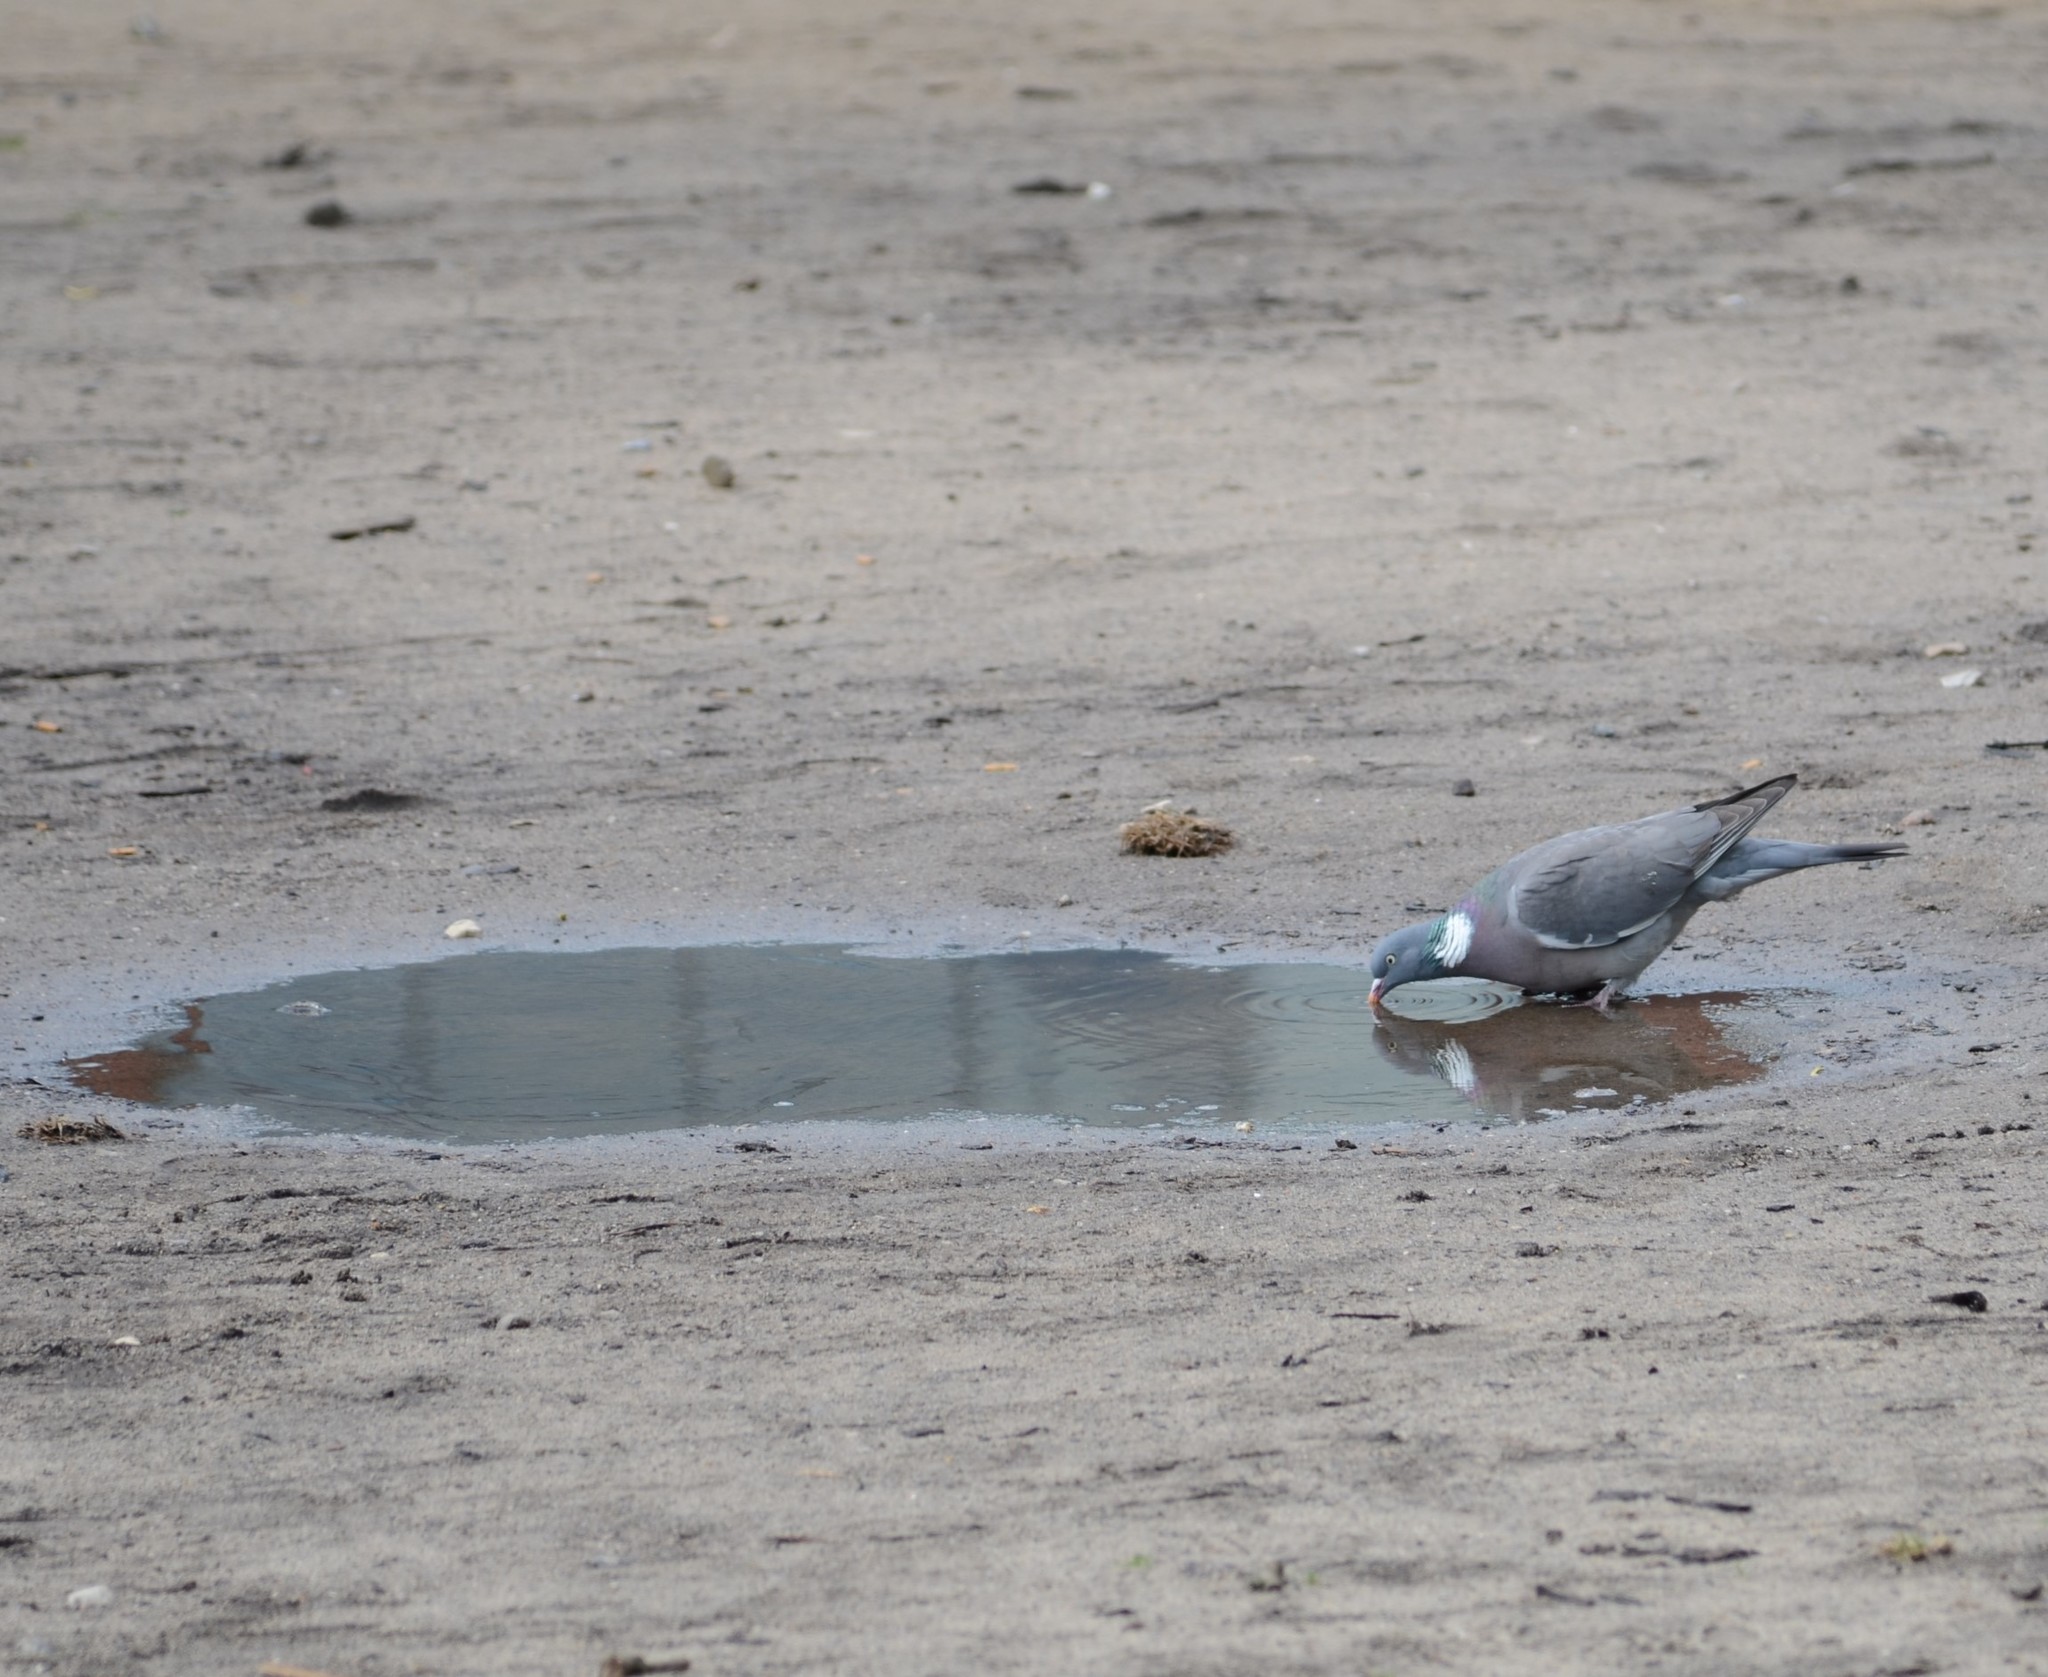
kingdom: Animalia
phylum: Chordata
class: Aves
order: Columbiformes
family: Columbidae
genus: Columba
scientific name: Columba palumbus
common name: Common wood pigeon
